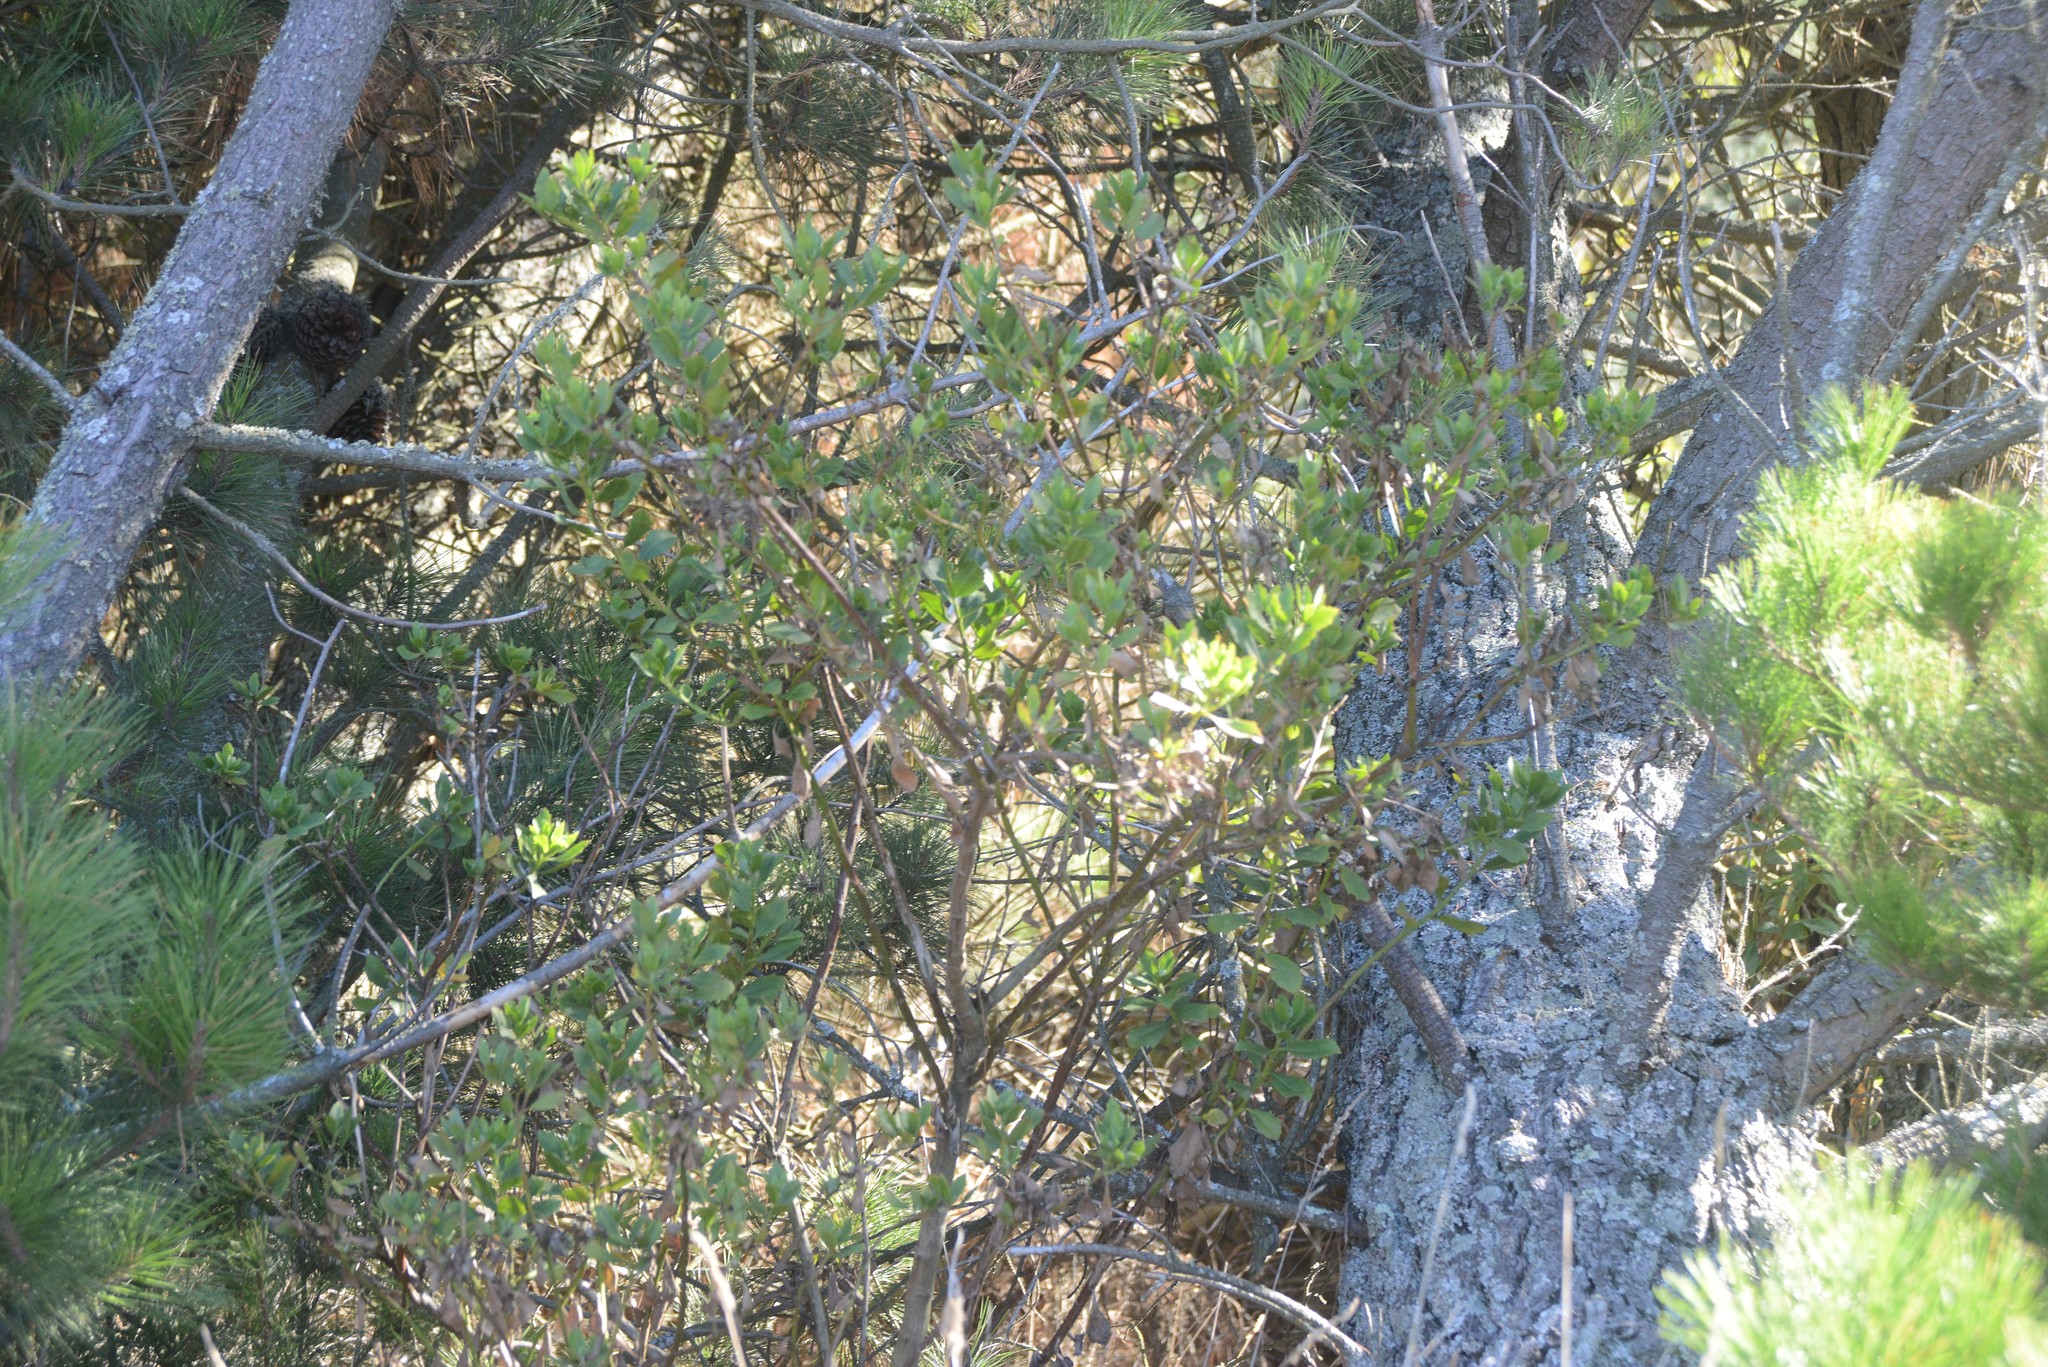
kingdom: Plantae
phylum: Tracheophyta
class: Magnoliopsida
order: Asterales
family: Asteraceae
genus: Osteospermum
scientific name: Osteospermum moniliferum
